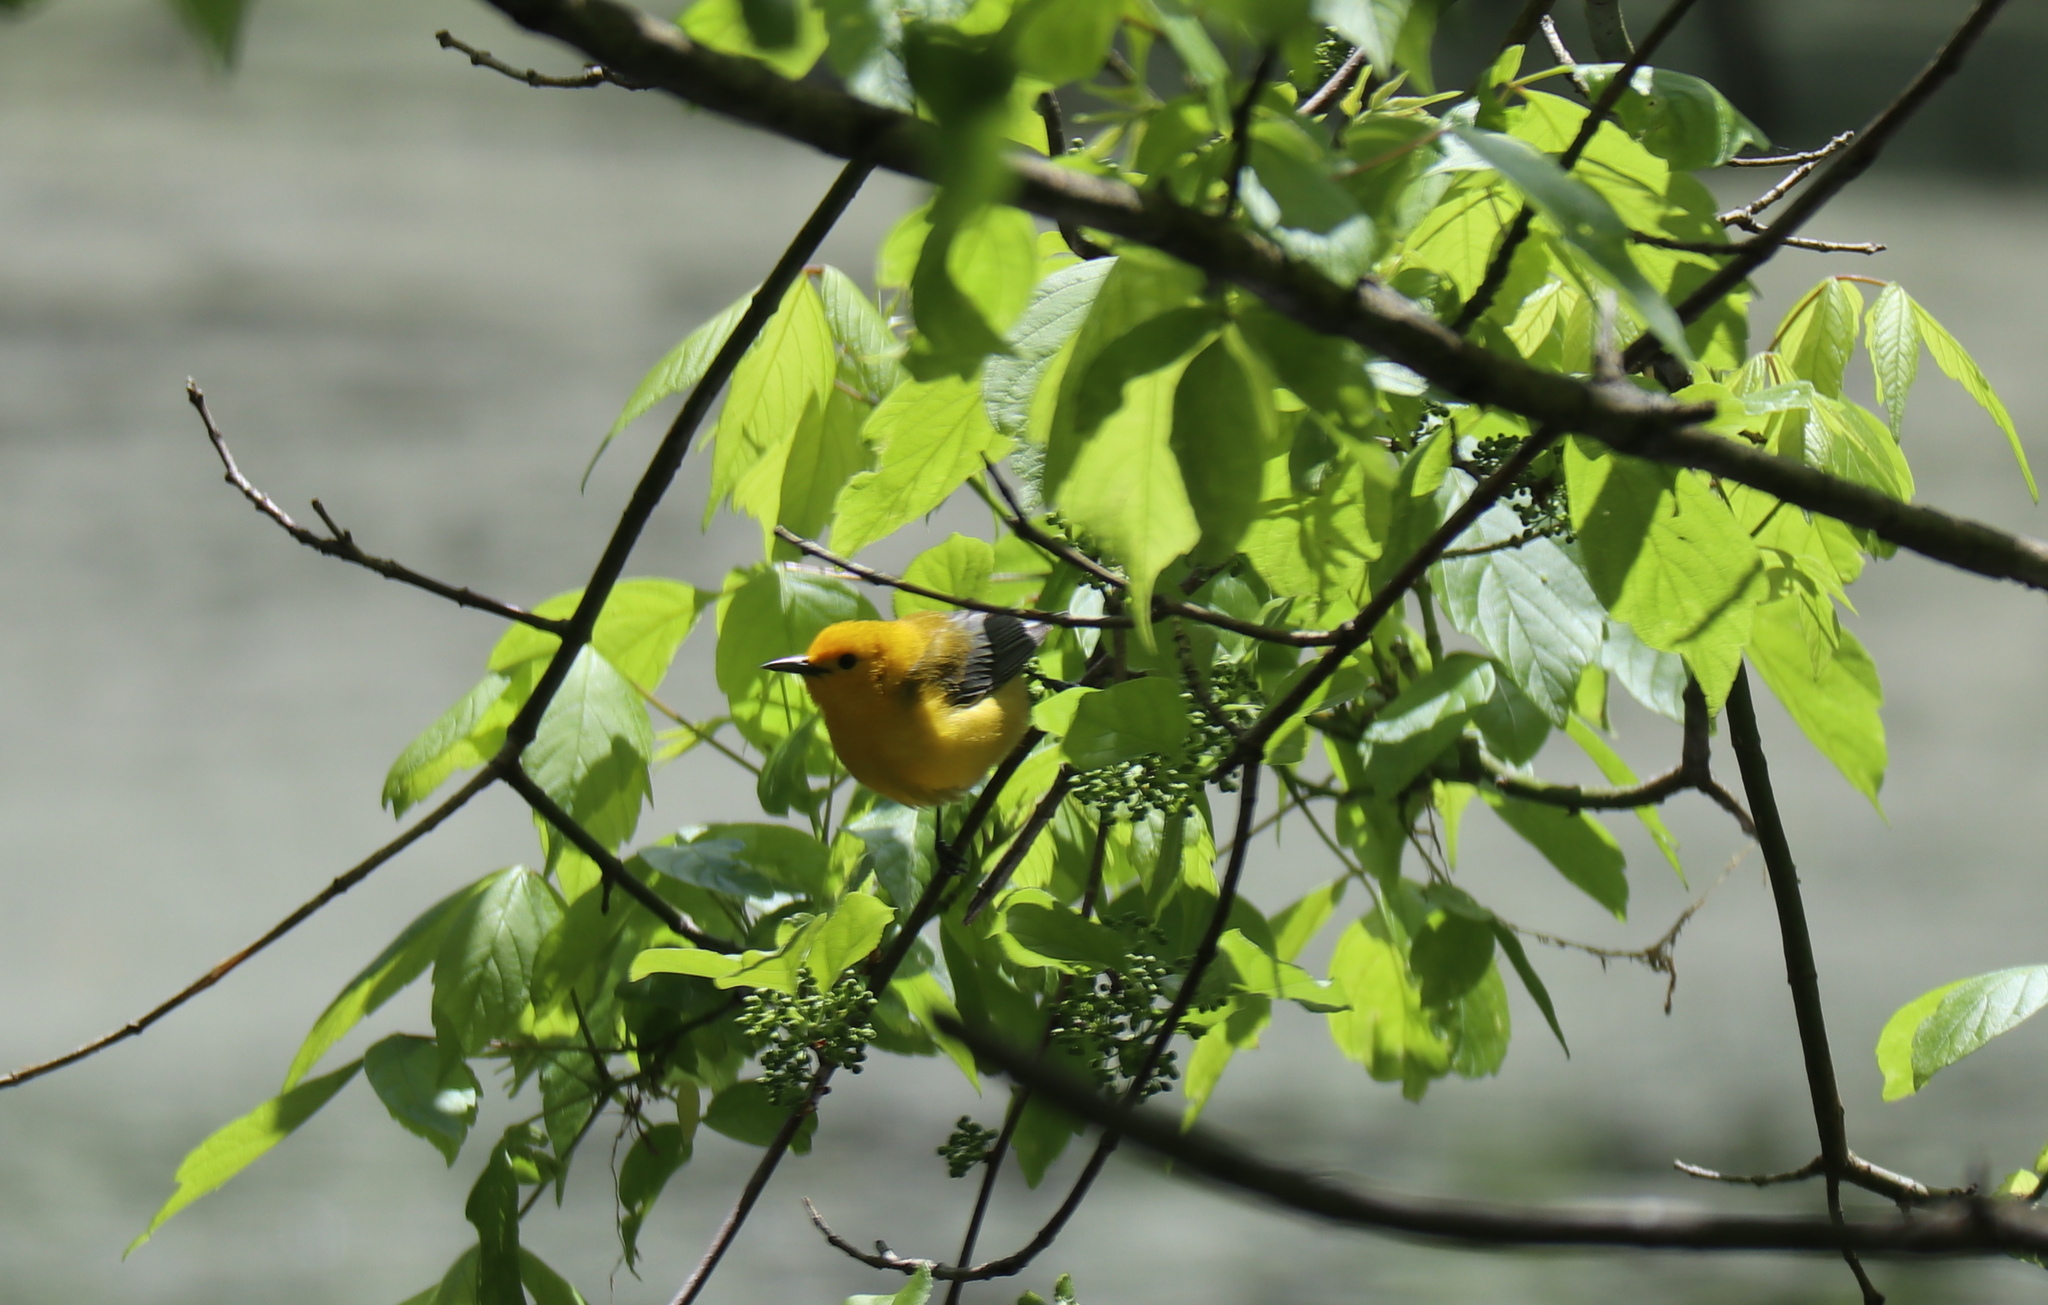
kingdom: Animalia
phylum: Chordata
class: Aves
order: Passeriformes
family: Parulidae
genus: Protonotaria
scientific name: Protonotaria citrea
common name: Prothonotary warbler
